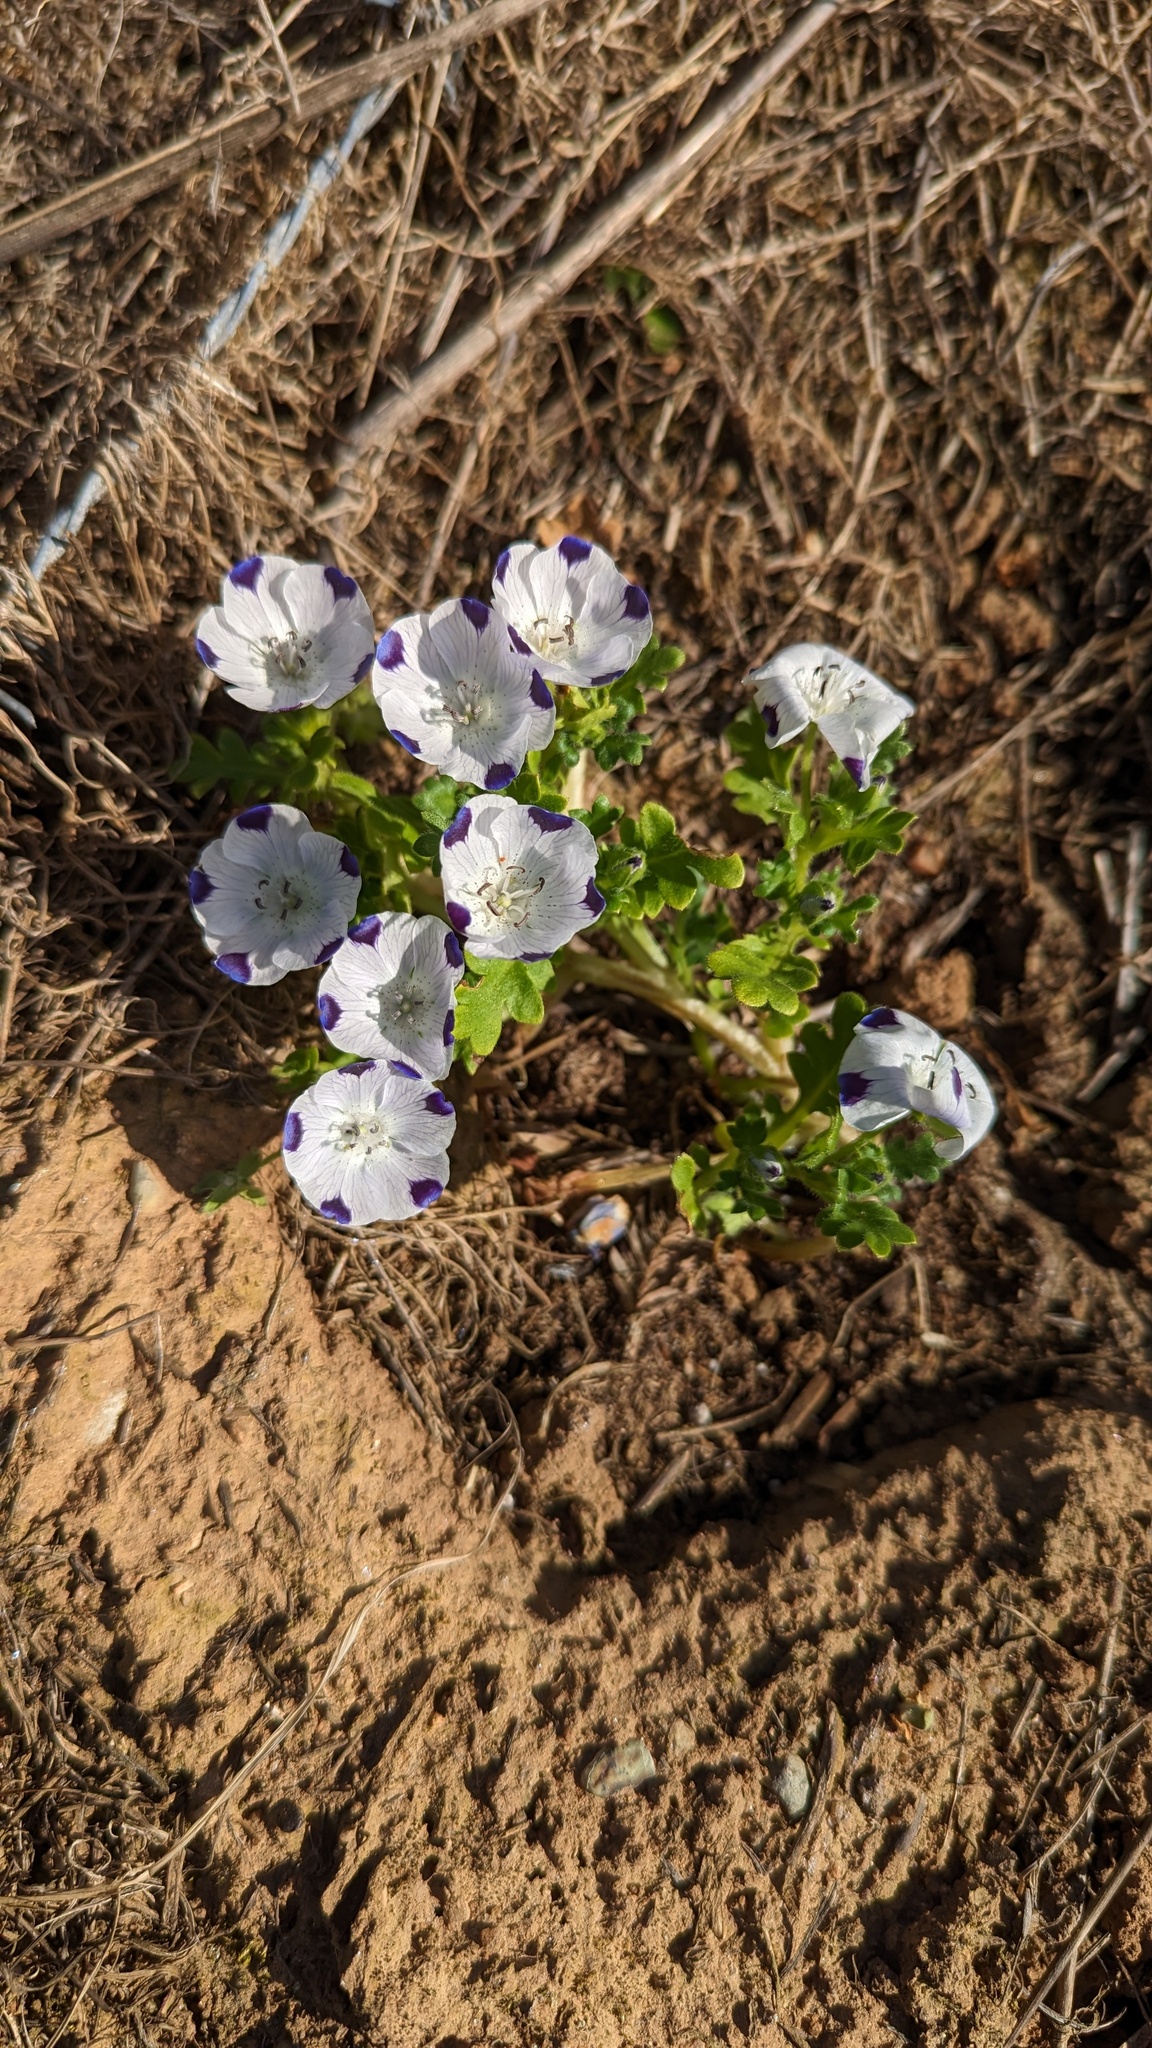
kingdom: Plantae
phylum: Tracheophyta
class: Magnoliopsida
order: Boraginales
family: Hydrophyllaceae
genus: Nemophila
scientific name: Nemophila maculata
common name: Fivespot
